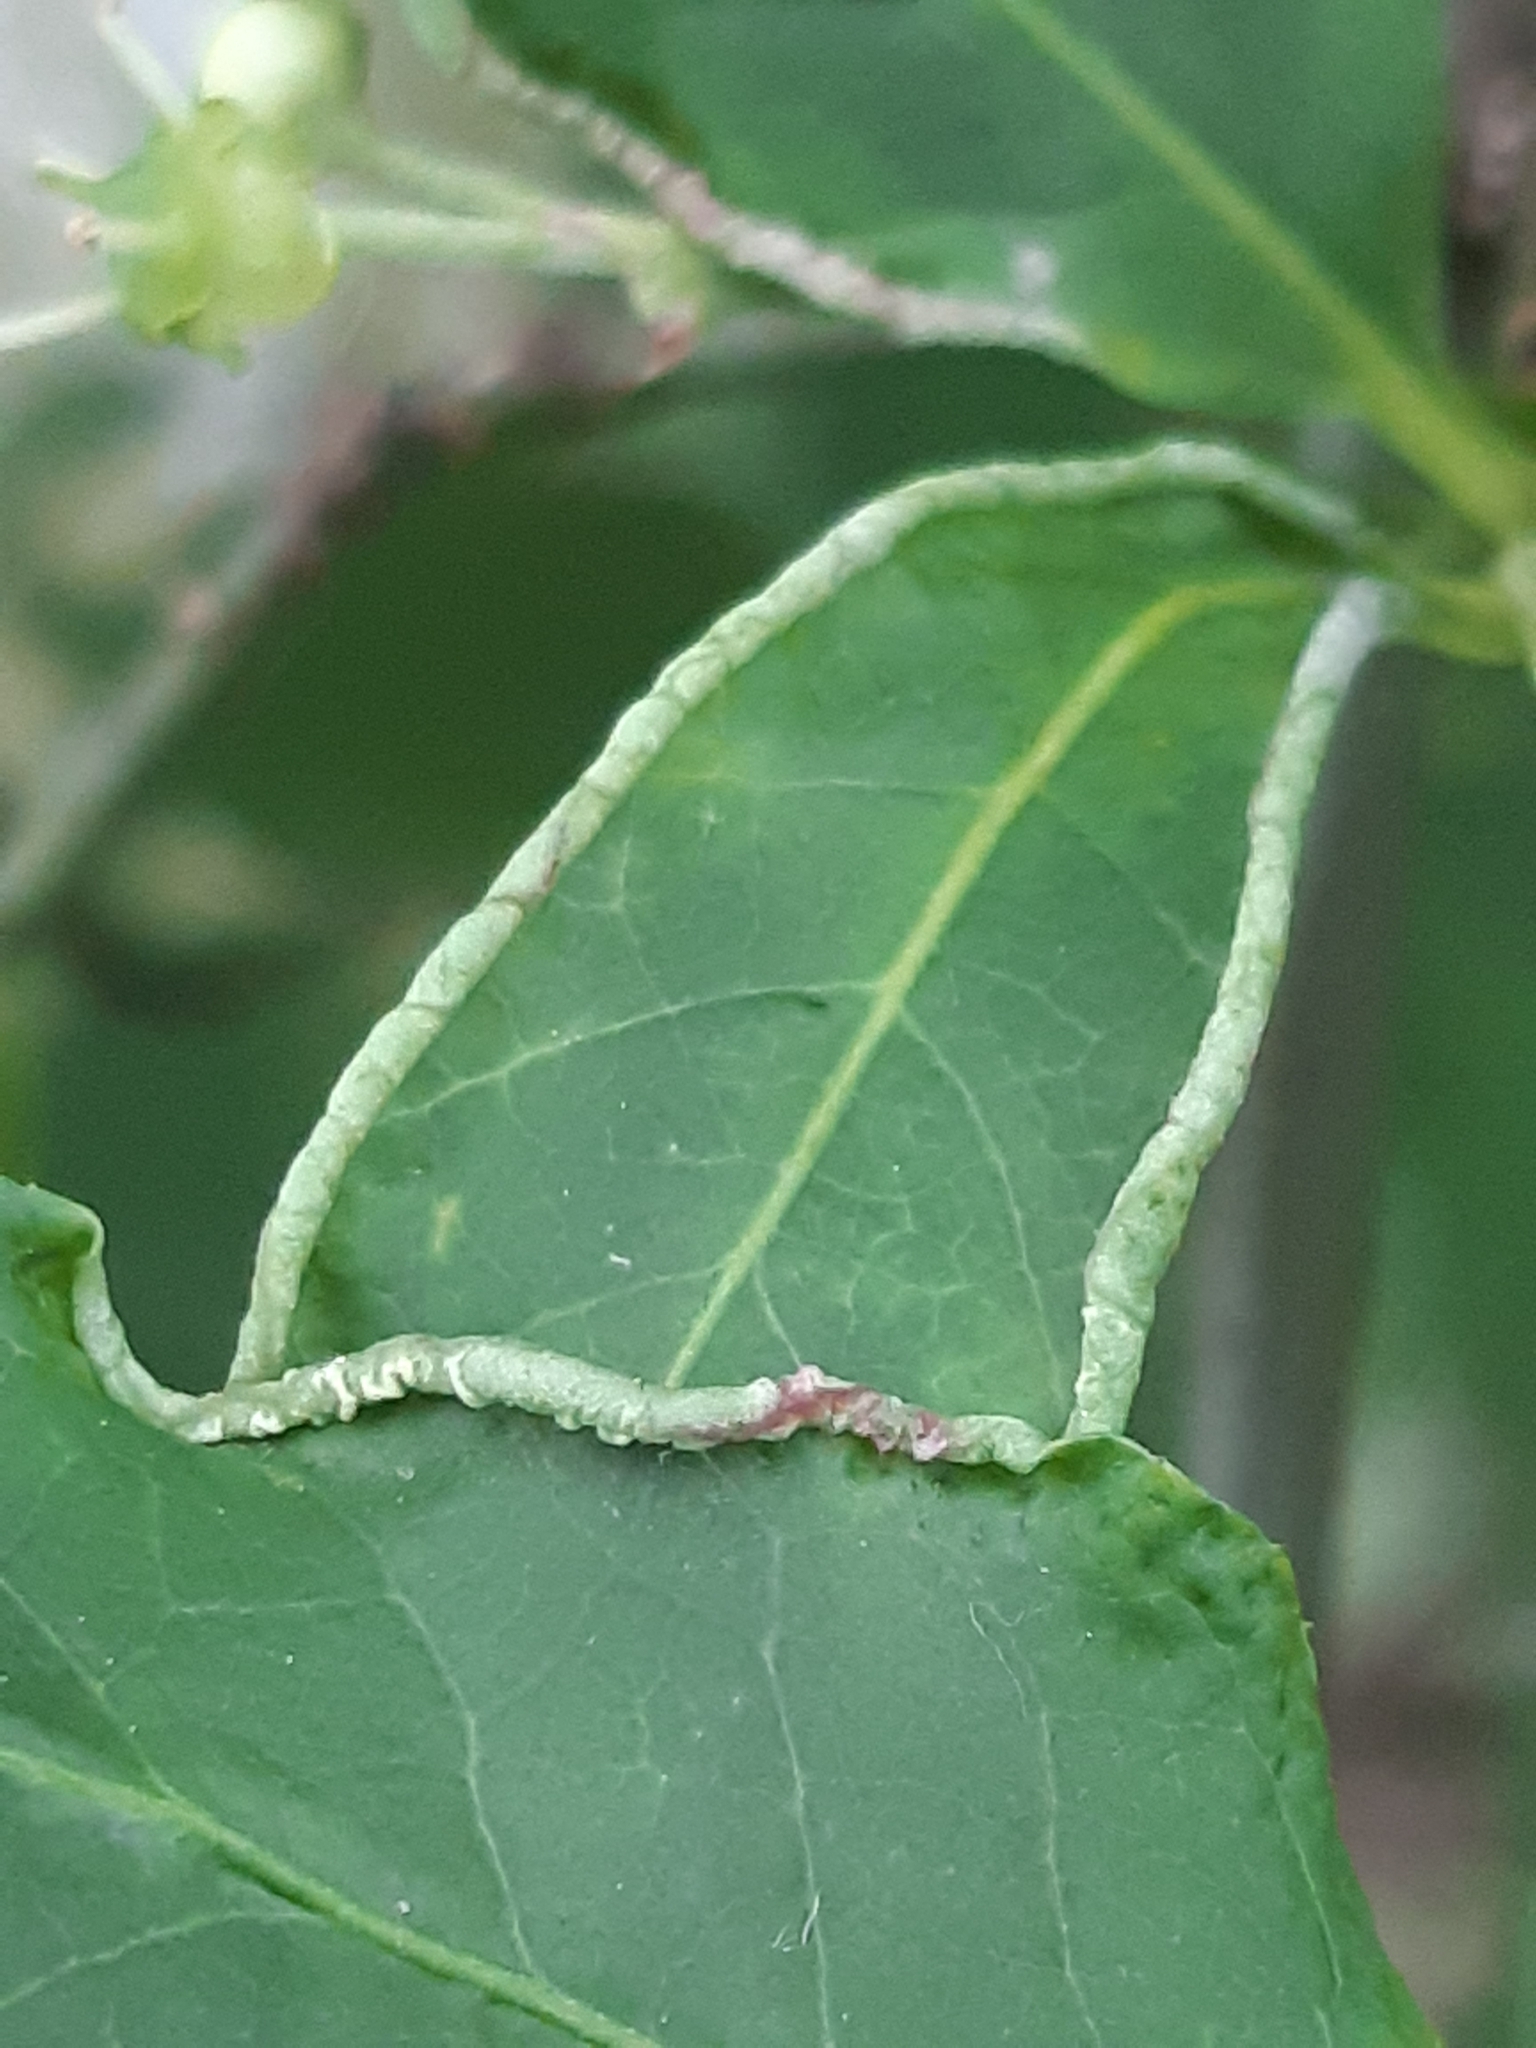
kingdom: Animalia
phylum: Arthropoda
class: Arachnida
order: Trombidiformes
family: Eriophyidae
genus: Stenacis
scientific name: Stenacis evonymi
